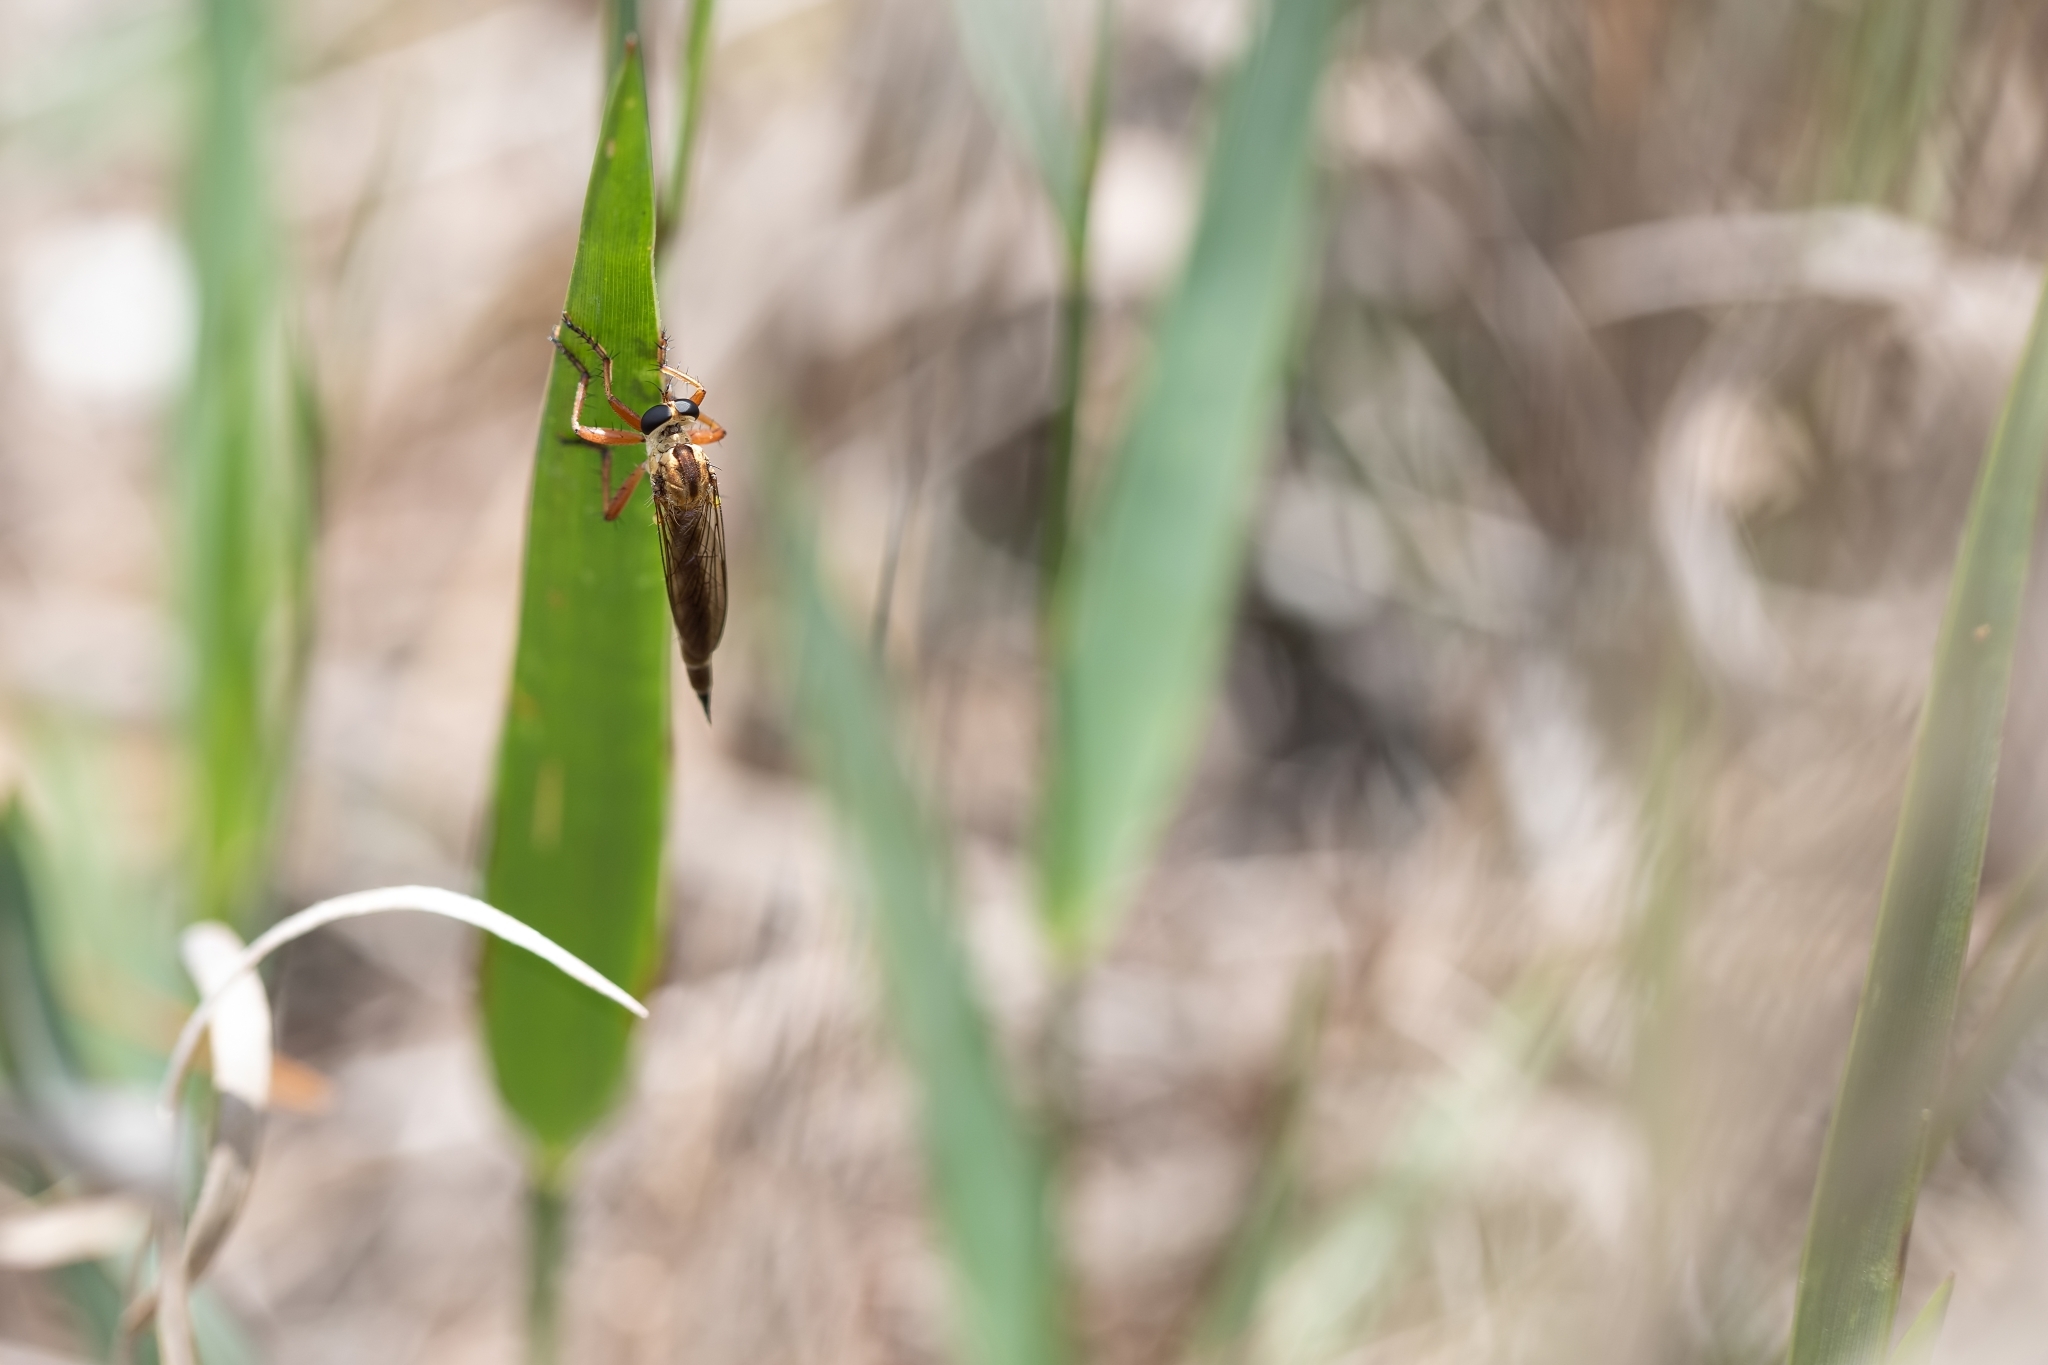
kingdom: Animalia
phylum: Arthropoda
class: Insecta
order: Diptera
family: Asilidae
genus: Polacantha
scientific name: Polacantha gracilis
